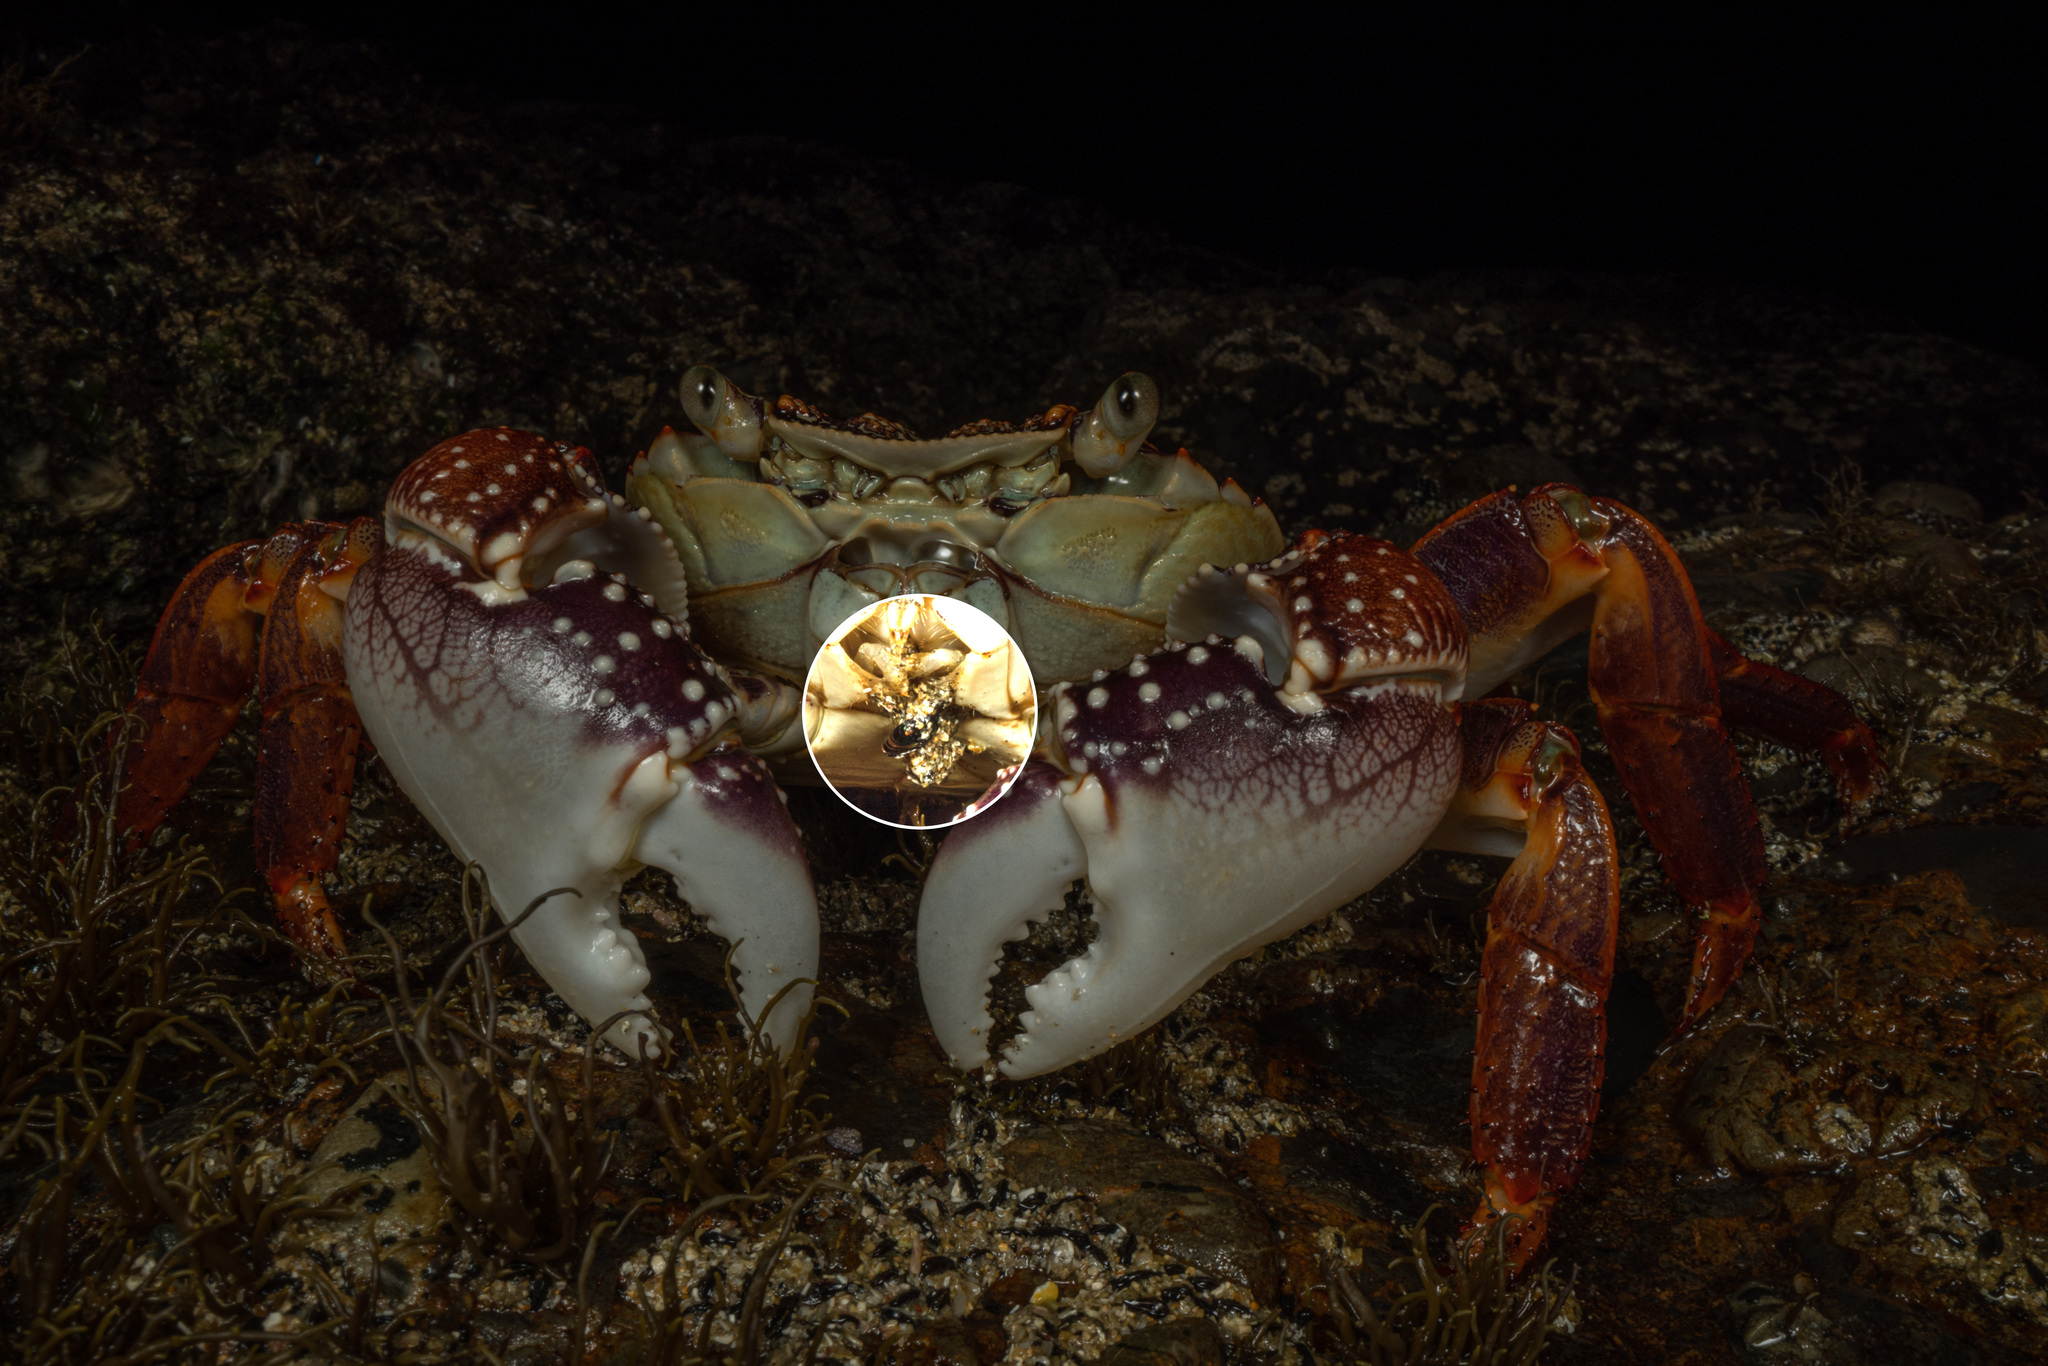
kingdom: Animalia
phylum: Mollusca
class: Bivalvia
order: Mytilida
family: Mytilidae
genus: Xenostrobus
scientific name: Xenostrobus neozelanicus
